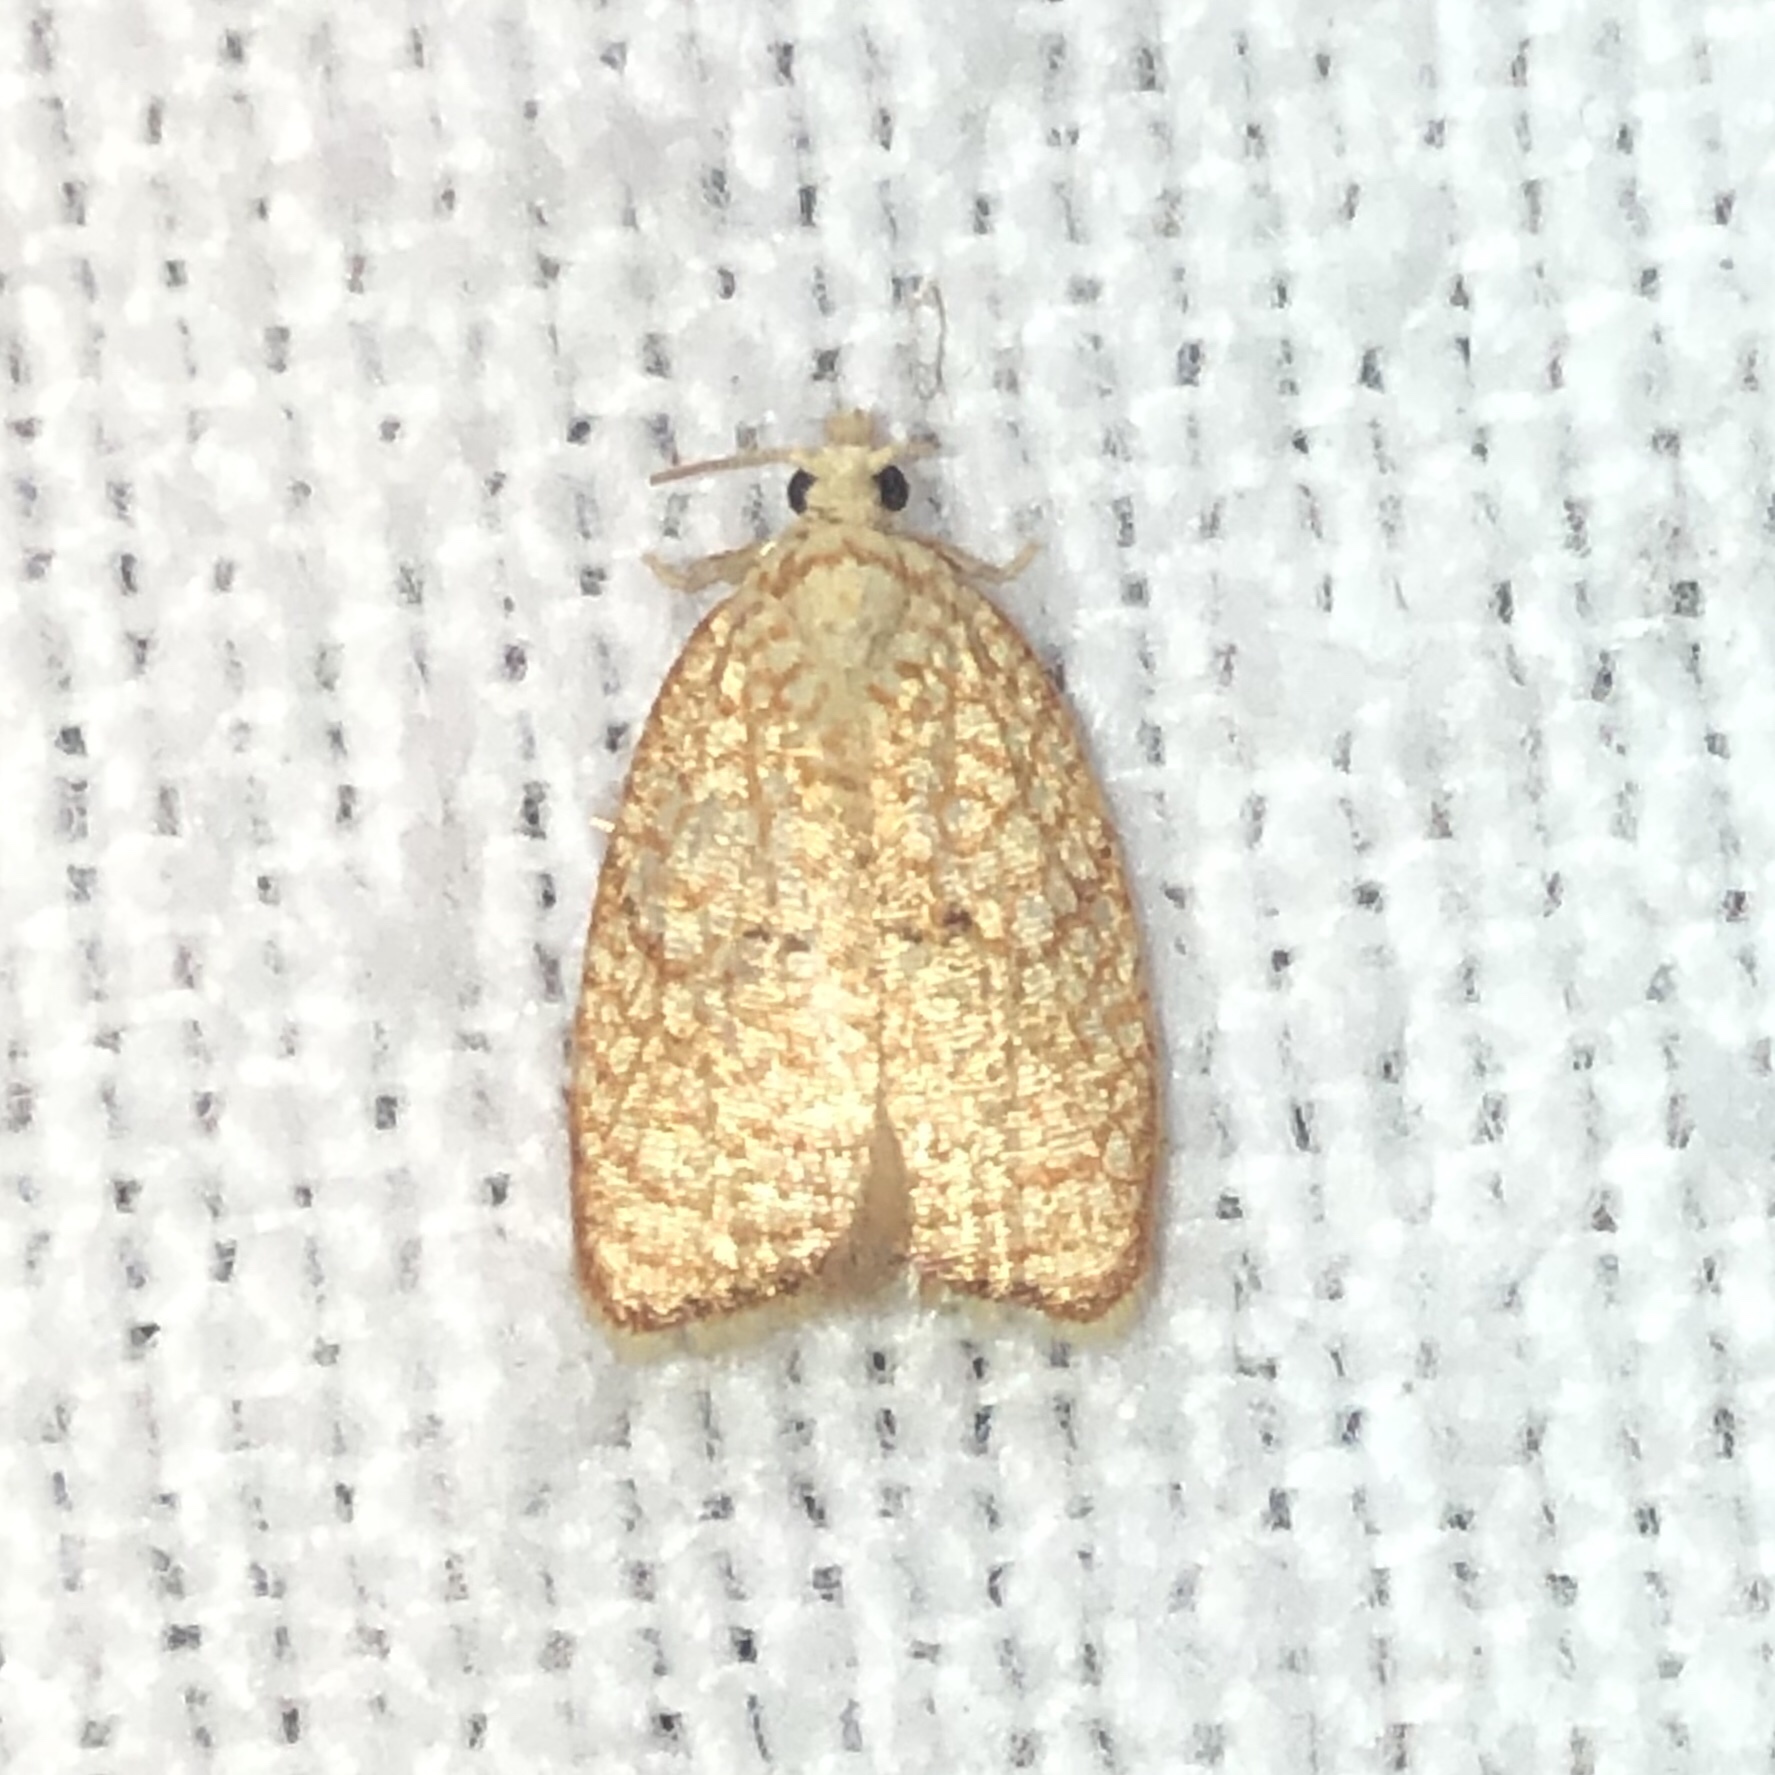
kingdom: Animalia
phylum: Arthropoda
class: Insecta
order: Lepidoptera
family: Tortricidae
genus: Acleris
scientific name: Acleris forsskaleana
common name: Maple button
